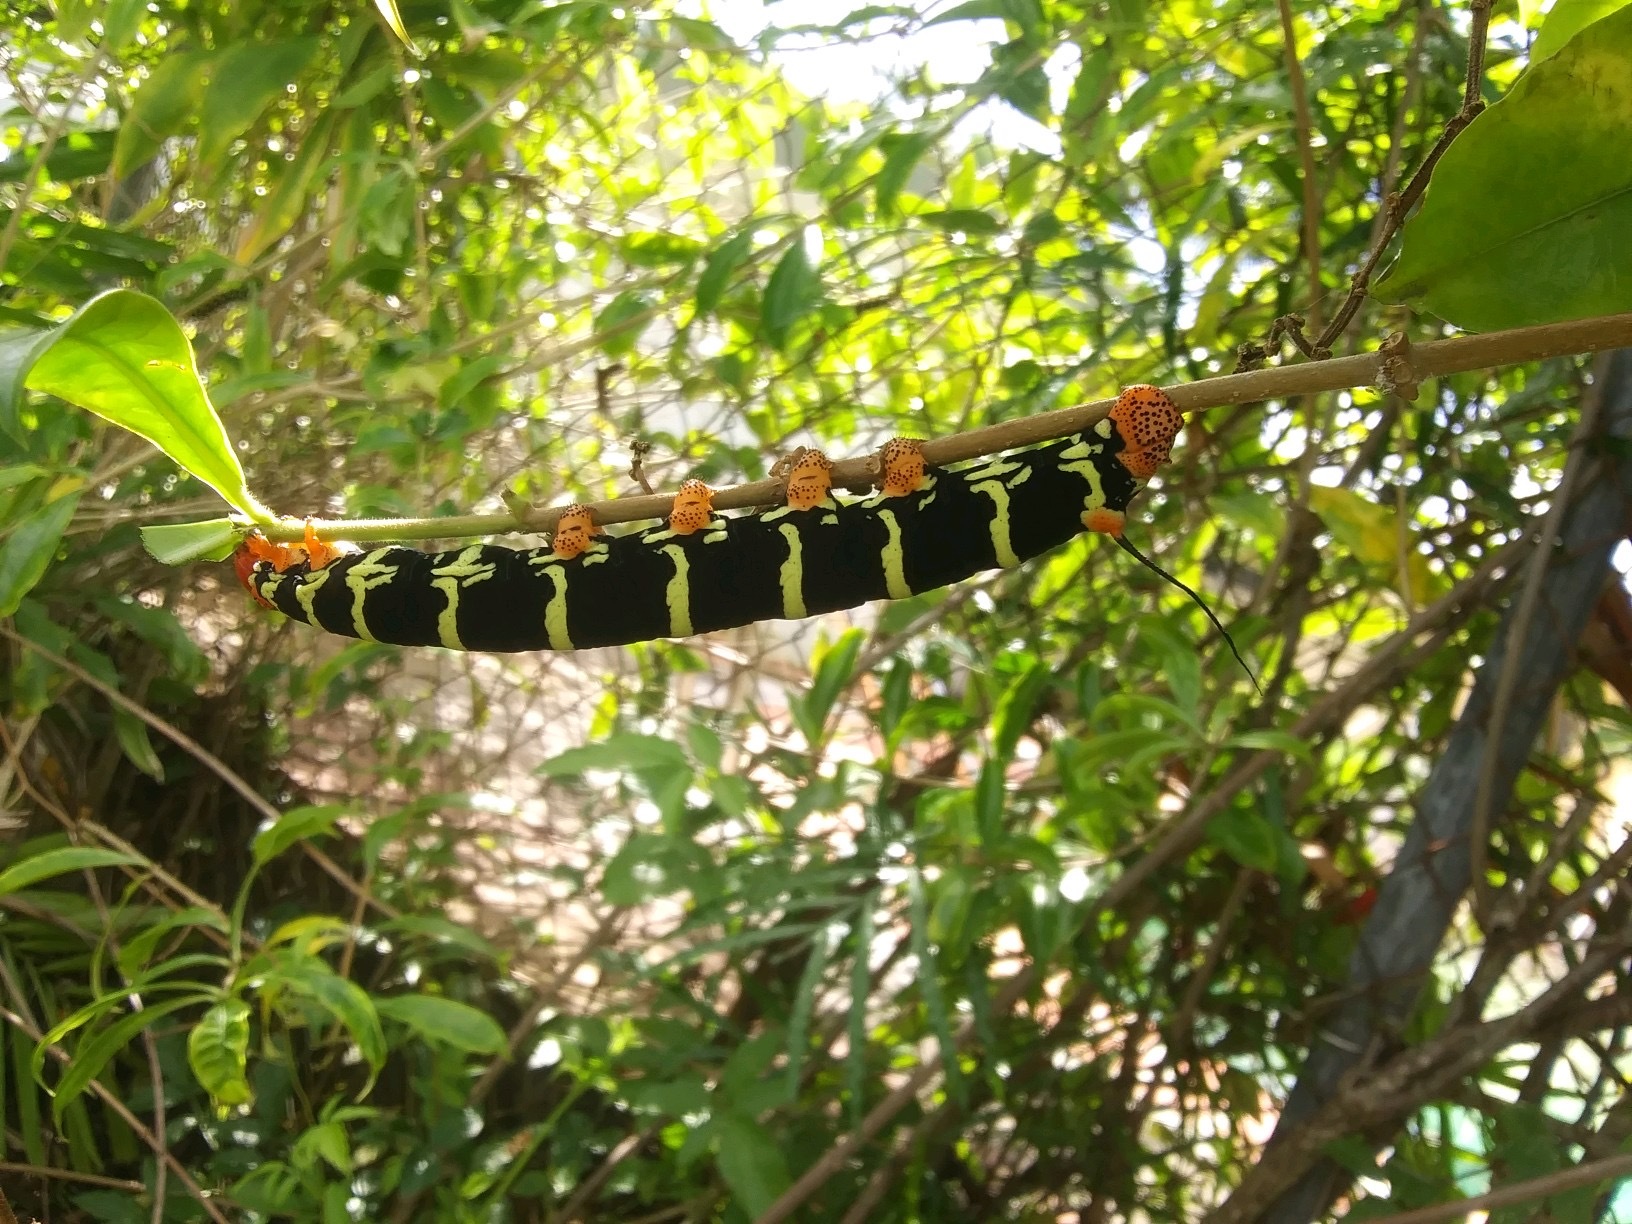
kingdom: Animalia
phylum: Arthropoda
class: Insecta
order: Lepidoptera
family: Sphingidae
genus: Pseudosphinx
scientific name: Pseudosphinx tetrio
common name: Tetrio sphinx
